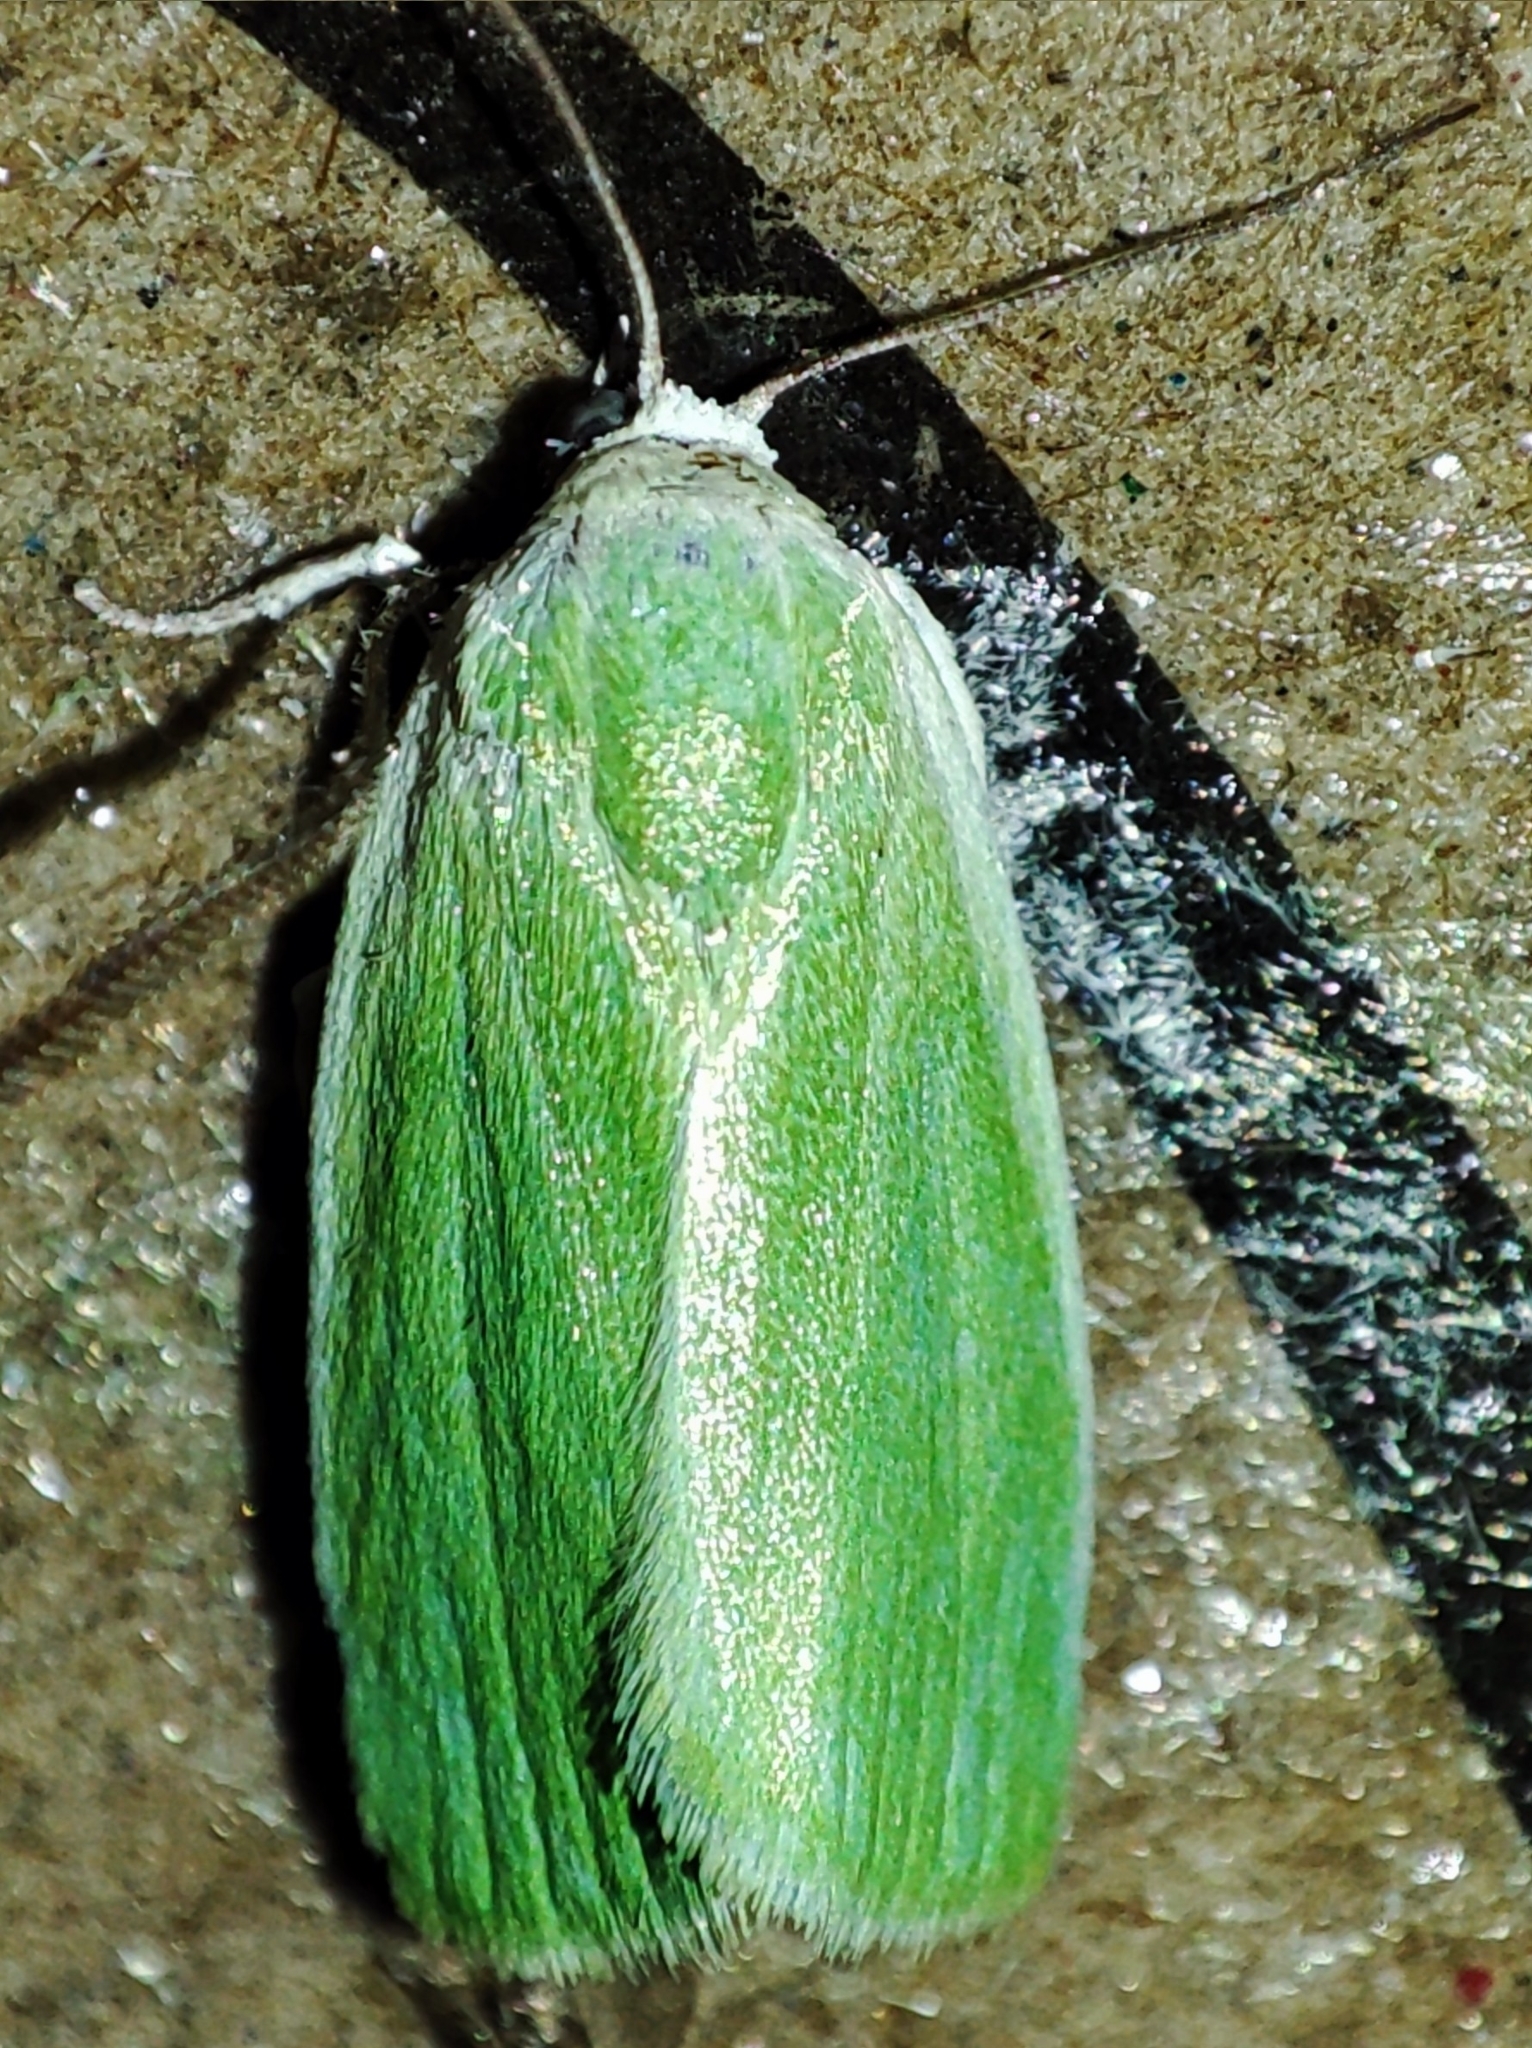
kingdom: Animalia
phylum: Arthropoda
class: Insecta
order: Lepidoptera
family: Nolidae
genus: Earias
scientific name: Earias clorana
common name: Cream-bordered green pea
